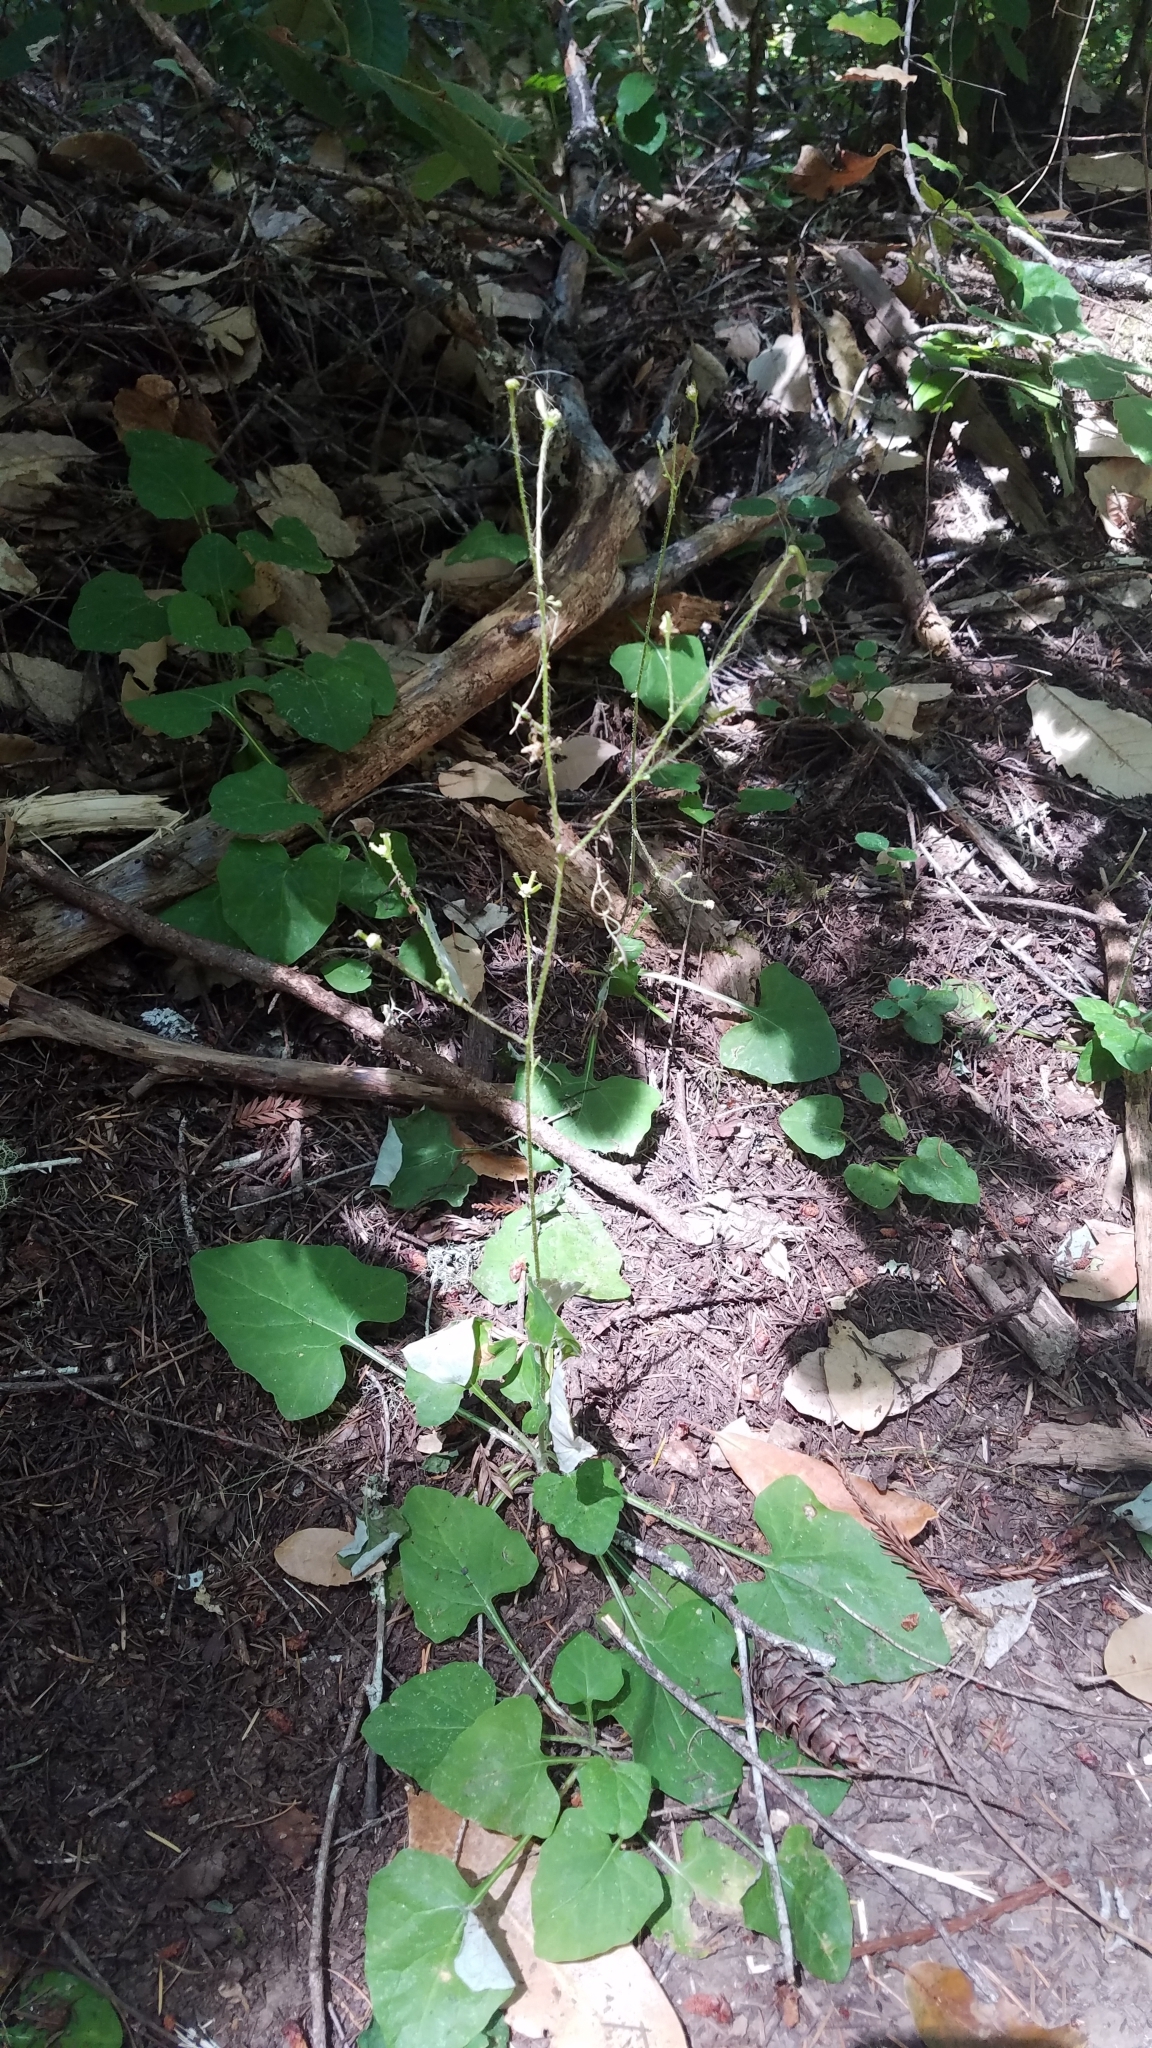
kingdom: Plantae
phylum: Tracheophyta
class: Magnoliopsida
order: Asterales
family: Asteraceae
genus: Adenocaulon
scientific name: Adenocaulon bicolor
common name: Trailplant
